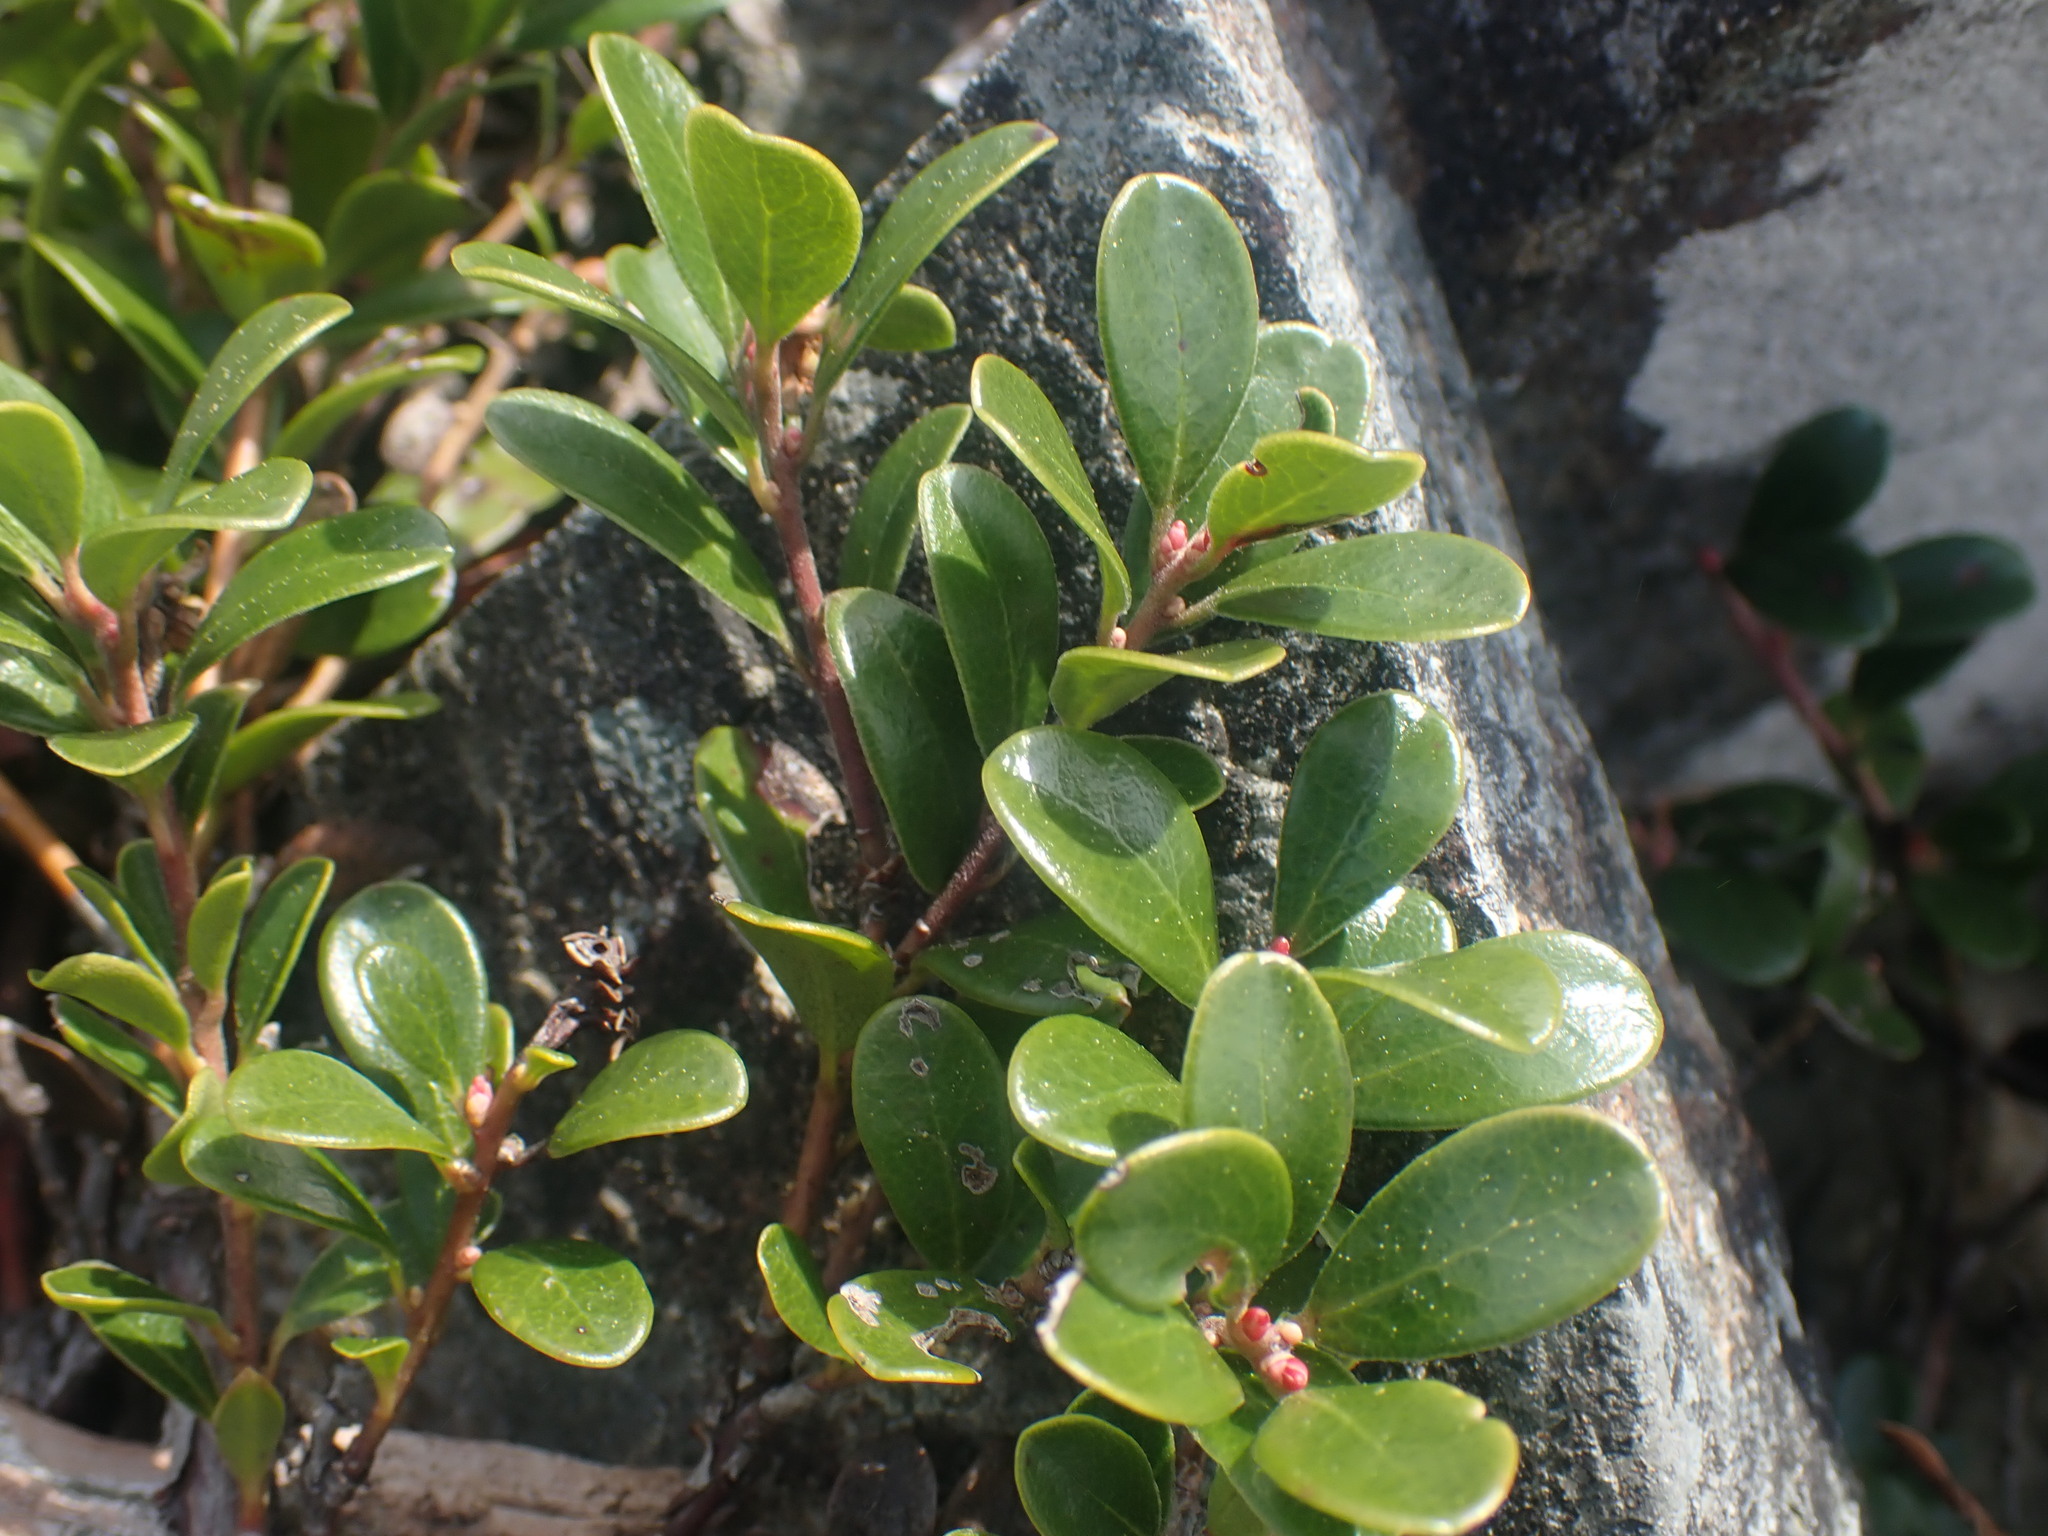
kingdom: Plantae
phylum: Tracheophyta
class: Magnoliopsida
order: Ericales
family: Ericaceae
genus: Arctostaphylos
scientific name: Arctostaphylos uva-ursi
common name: Bearberry
